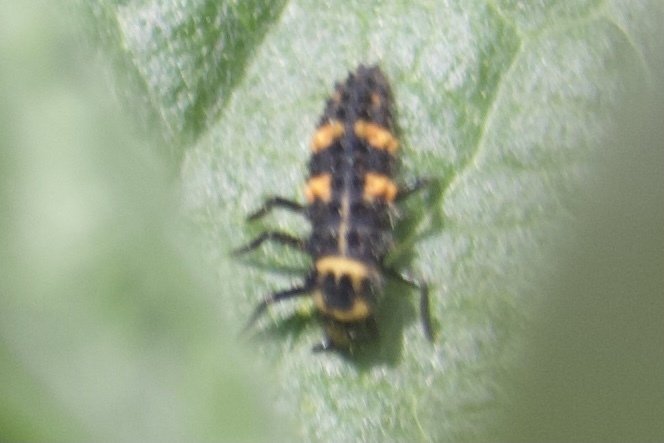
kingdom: Animalia
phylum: Arthropoda
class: Insecta
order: Coleoptera
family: Coccinellidae
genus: Hippodamia
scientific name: Hippodamia convergens
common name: Convergent lady beetle
